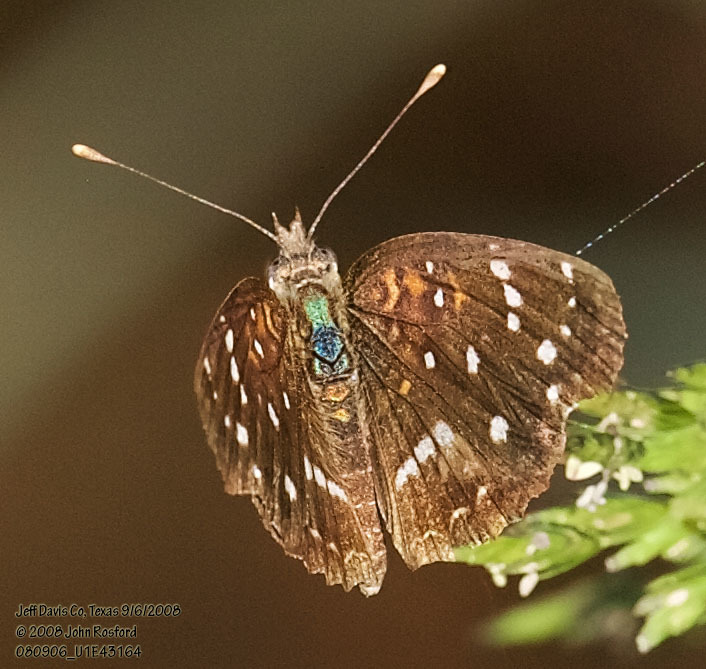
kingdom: Animalia
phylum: Arthropoda
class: Insecta
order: Lepidoptera
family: Nymphalidae
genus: Anthanassa
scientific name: Anthanassa texana
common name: Texan crescent
